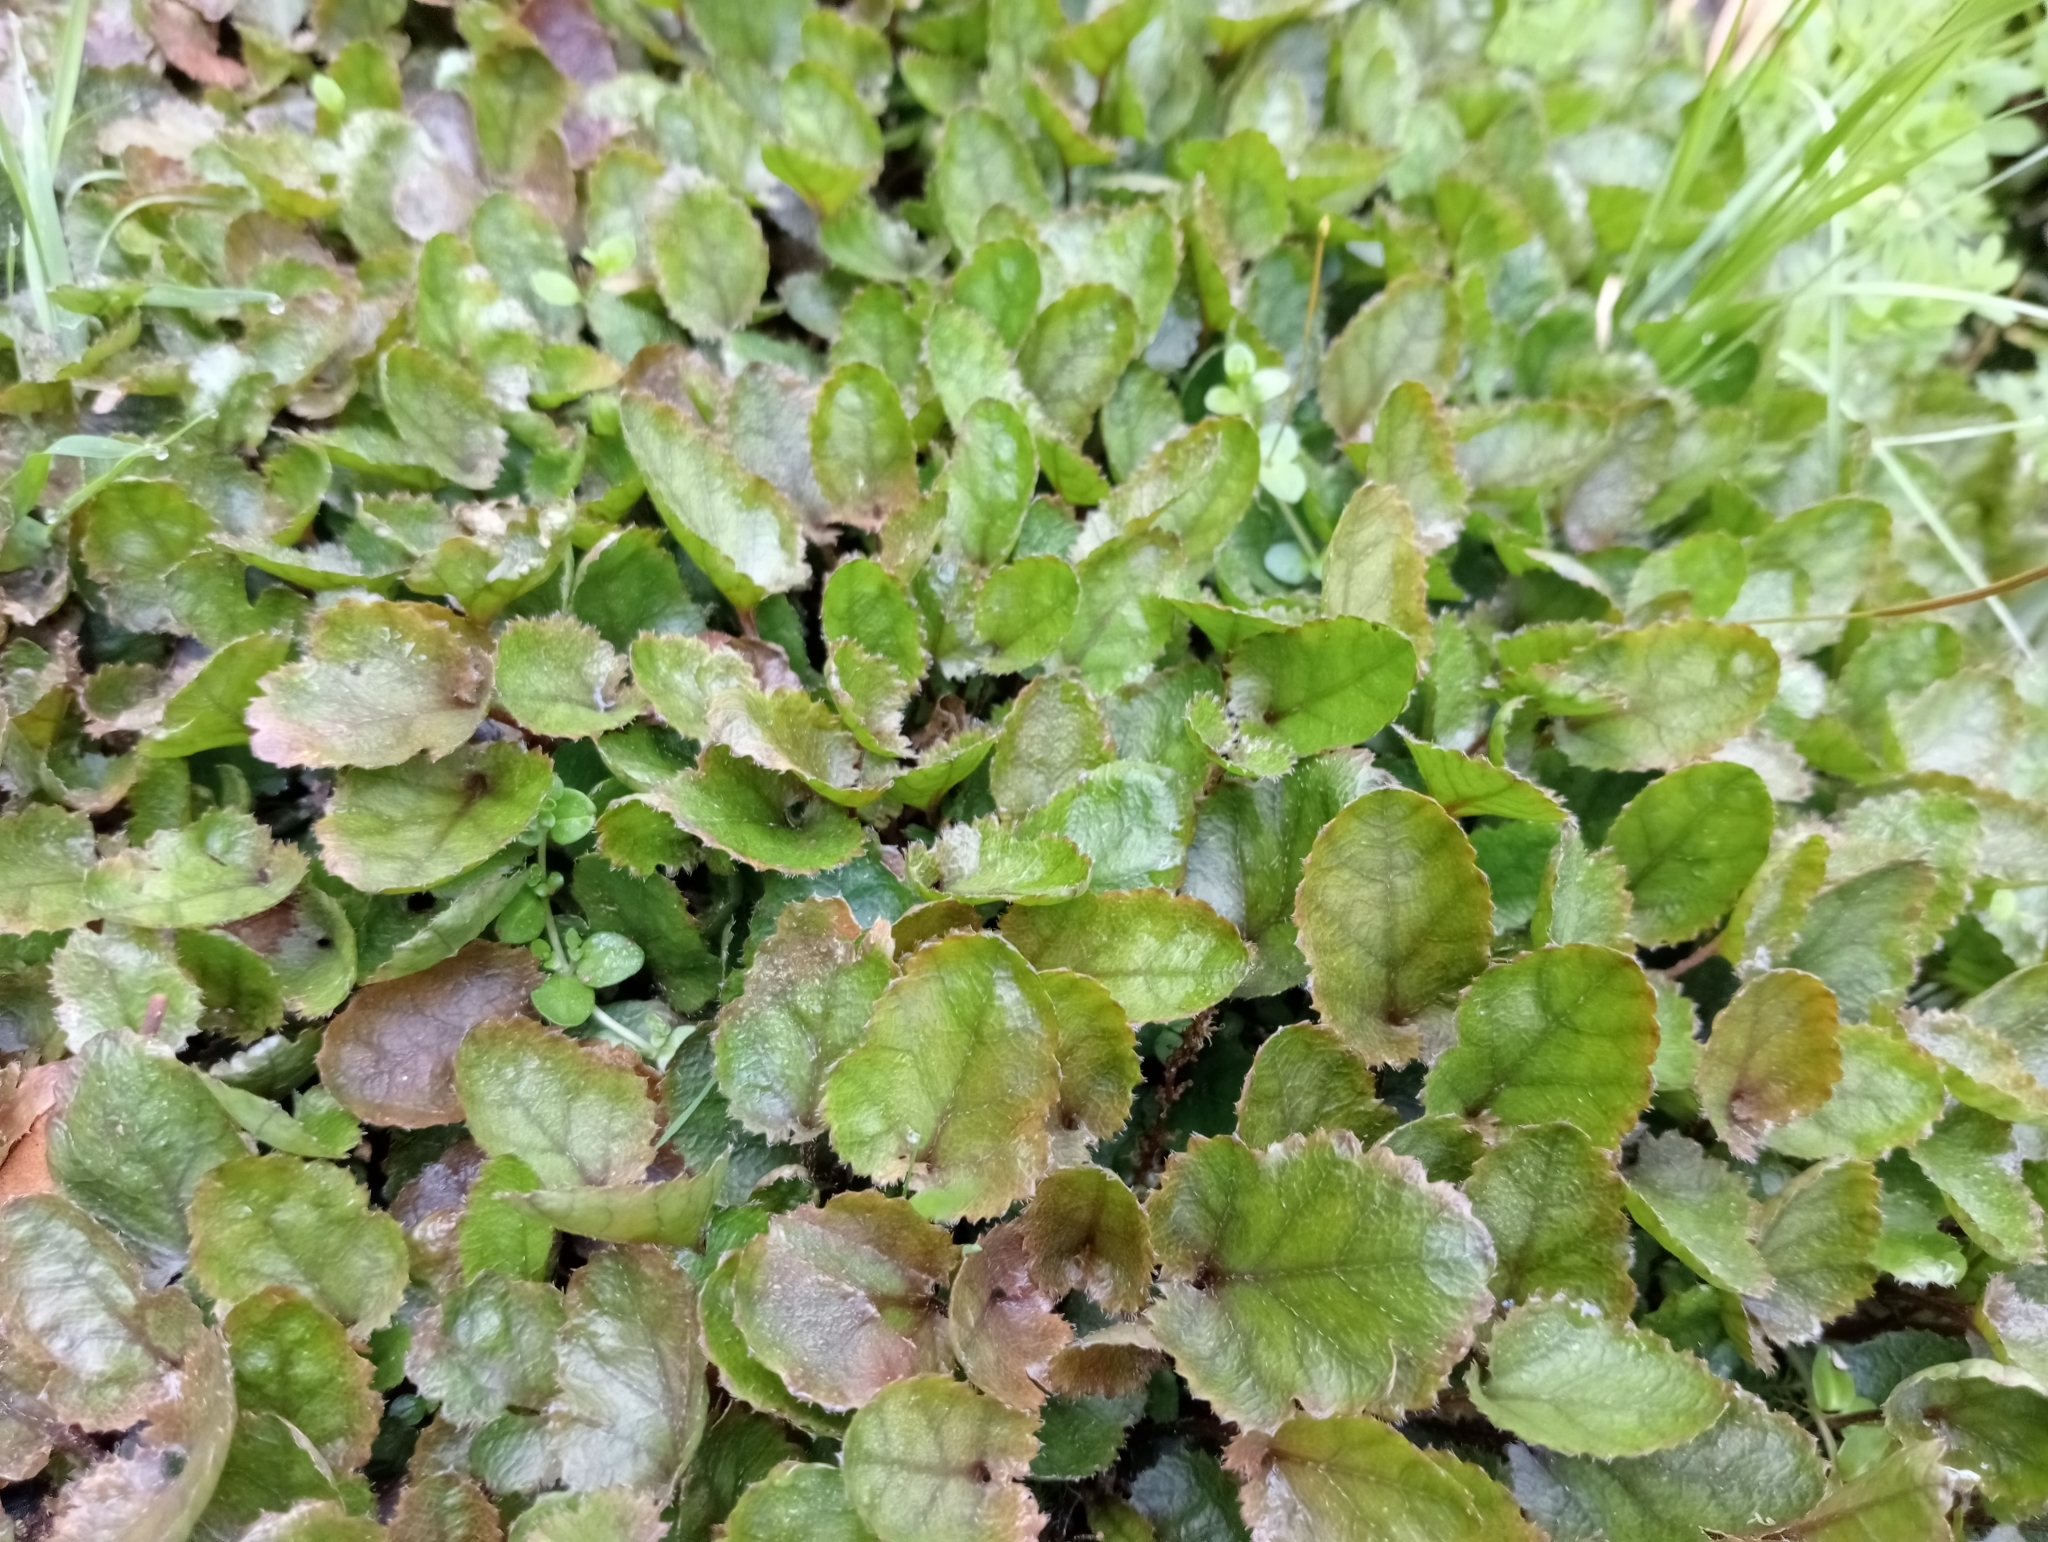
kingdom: Plantae
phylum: Tracheophyta
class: Magnoliopsida
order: Gunnerales
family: Gunneraceae
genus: Gunnera
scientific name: Gunnera prorepens
